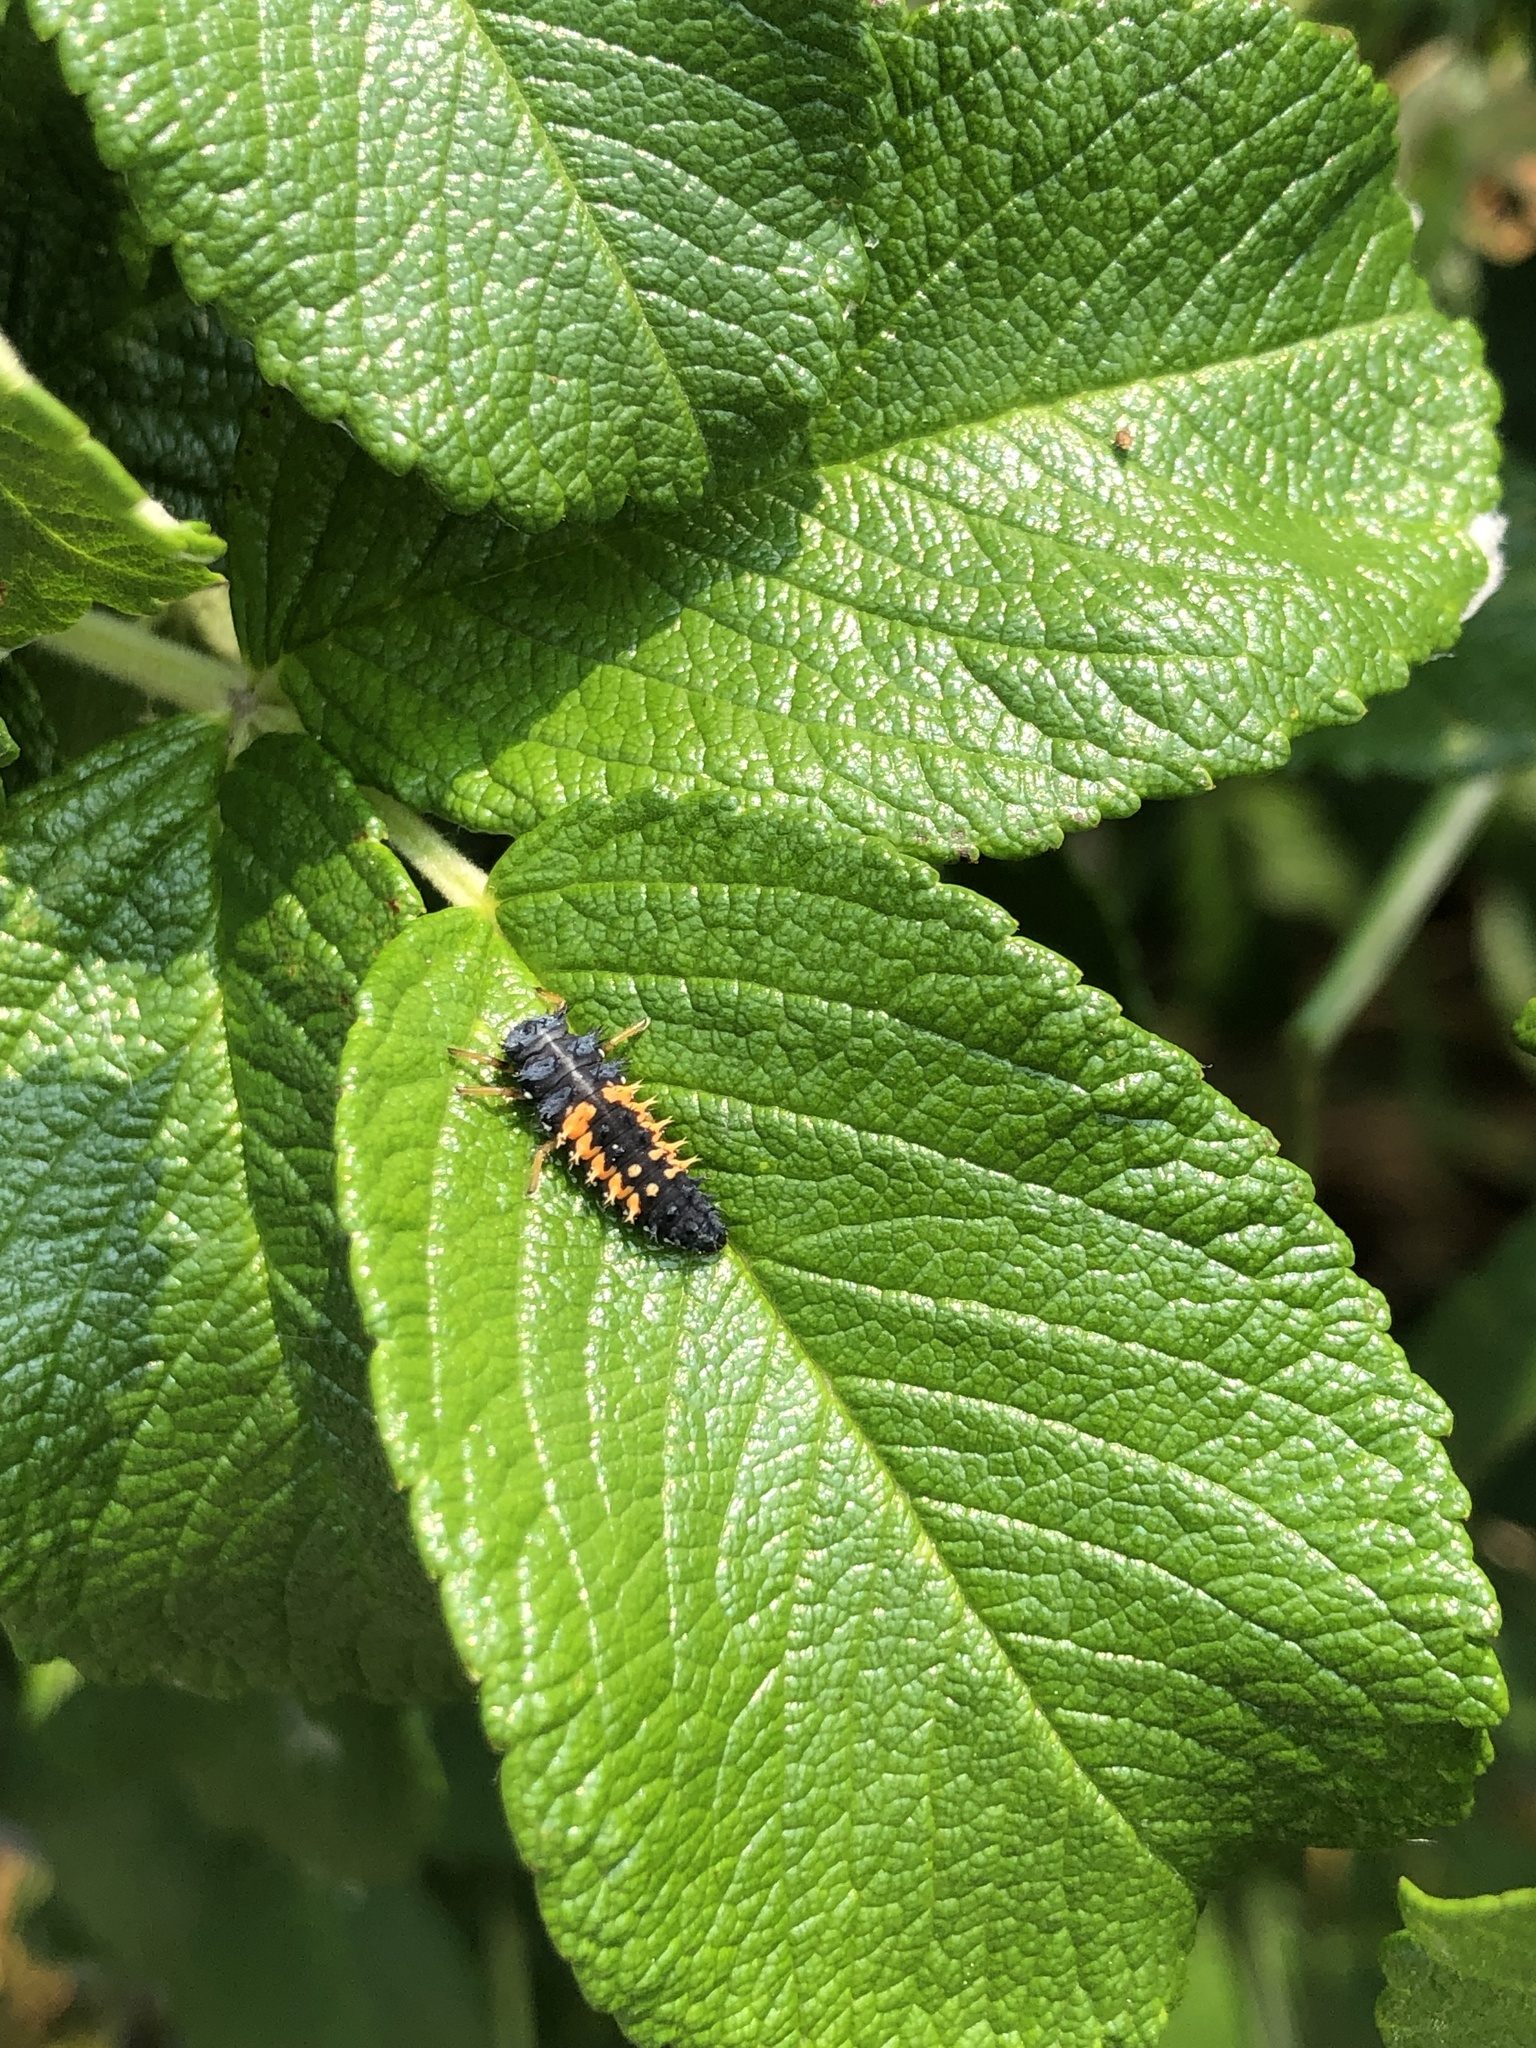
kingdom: Animalia
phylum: Arthropoda
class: Insecta
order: Coleoptera
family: Coccinellidae
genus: Harmonia
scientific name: Harmonia axyridis
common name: Harlequin ladybird
